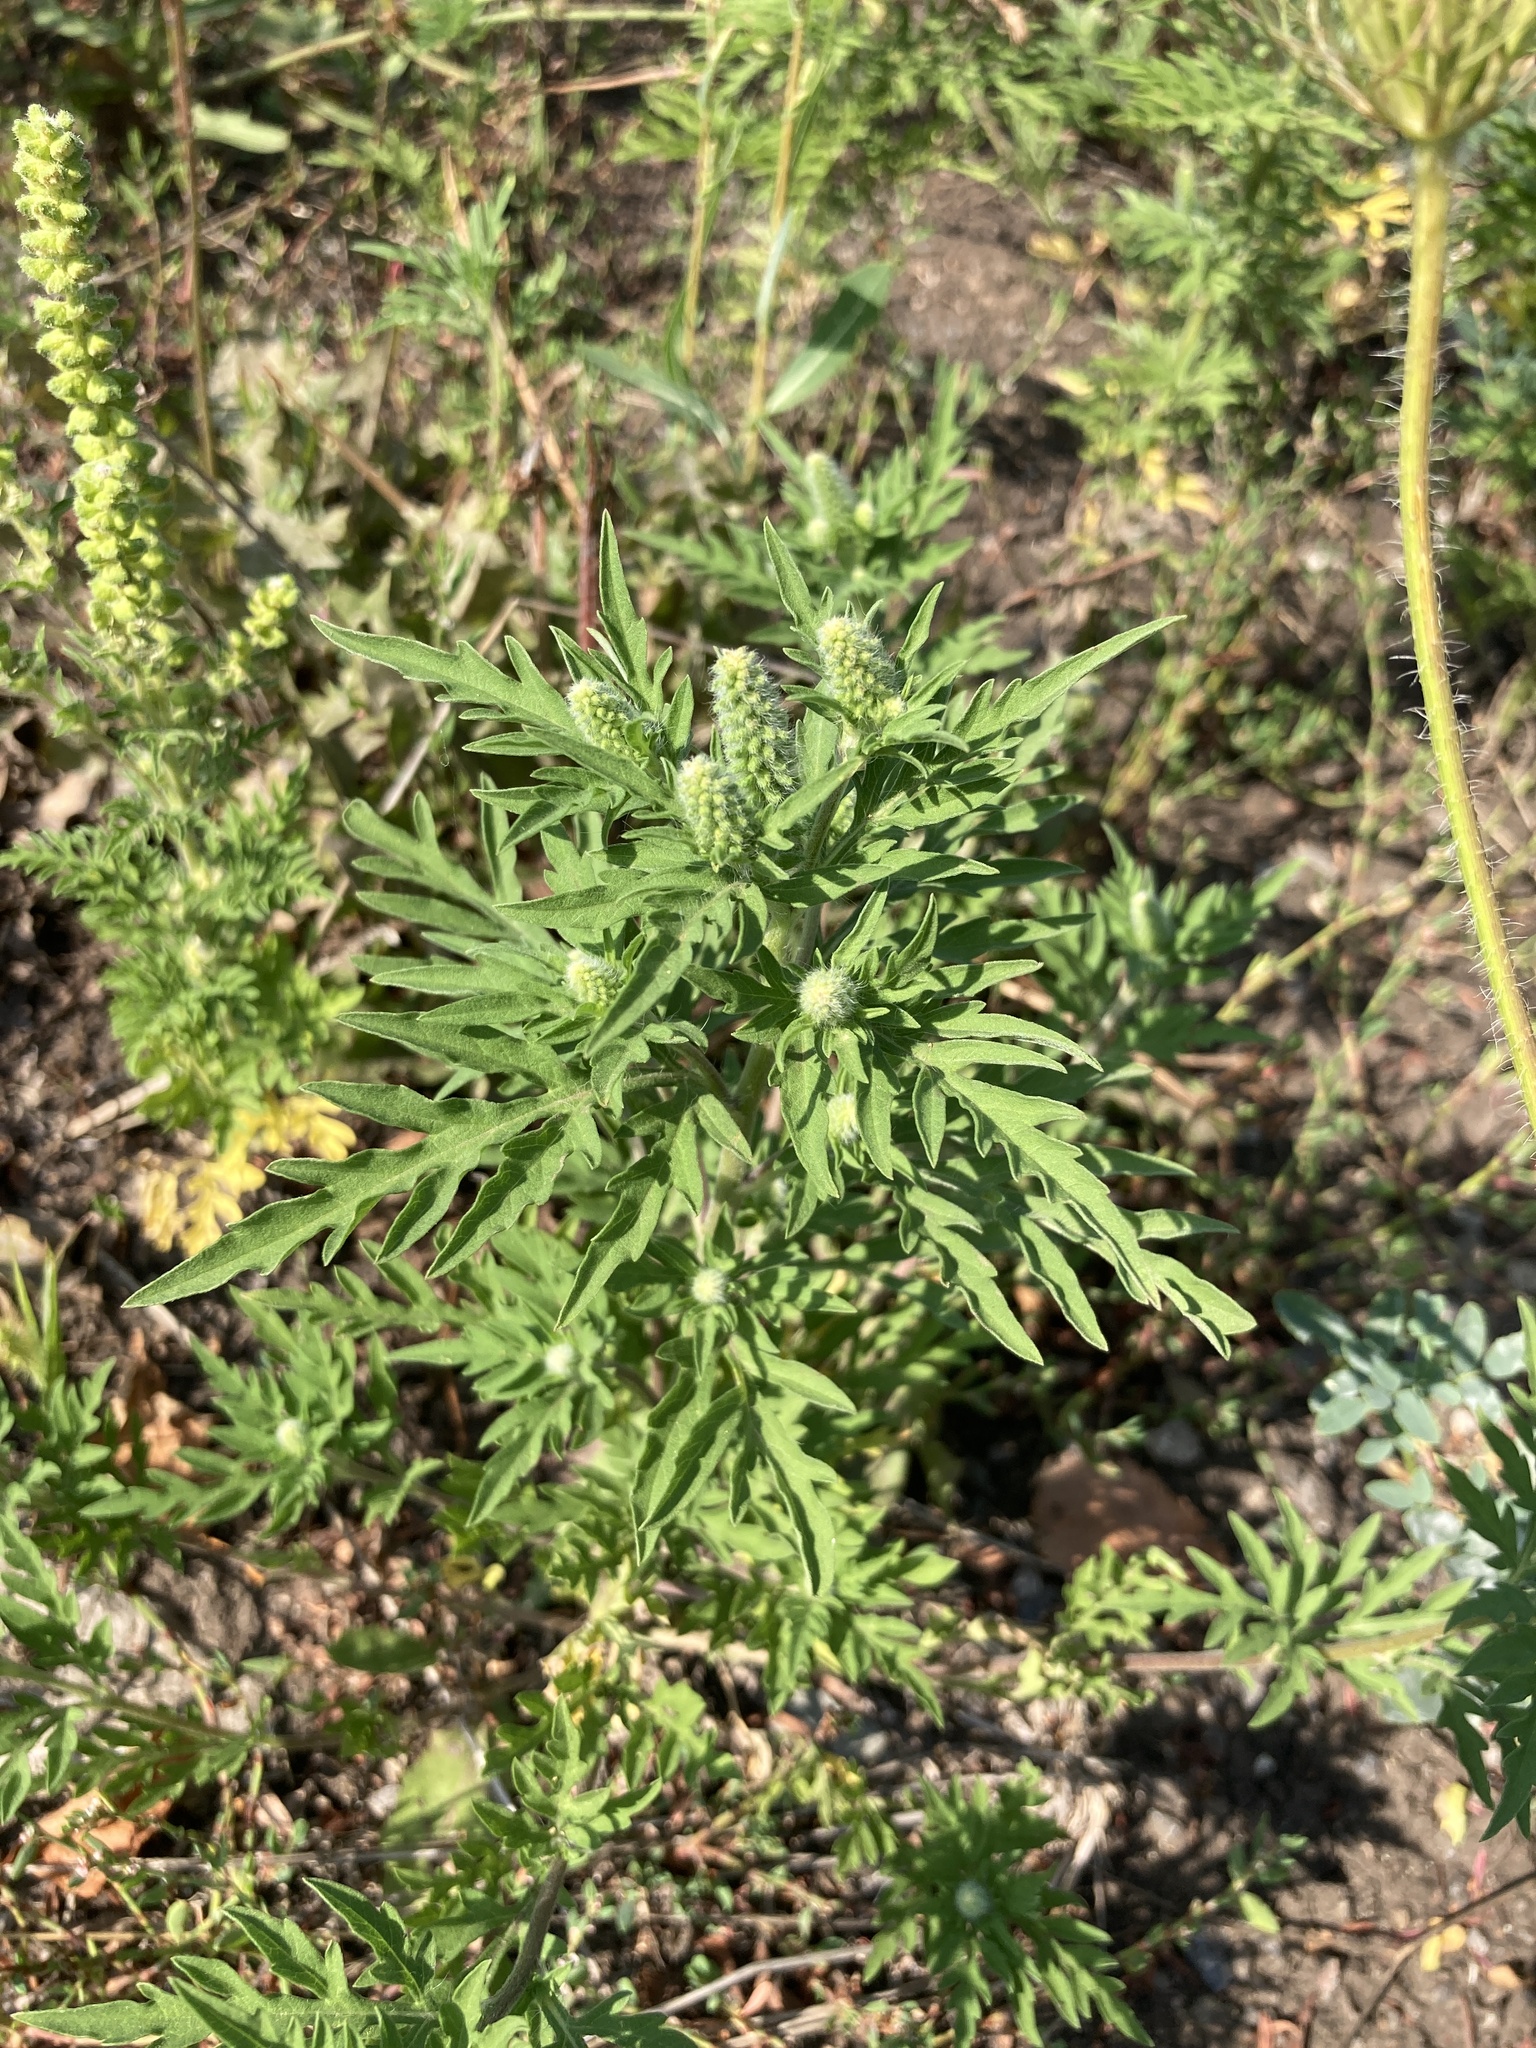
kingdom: Plantae
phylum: Tracheophyta
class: Magnoliopsida
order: Asterales
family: Asteraceae
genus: Ambrosia
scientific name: Ambrosia artemisiifolia
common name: Annual ragweed
